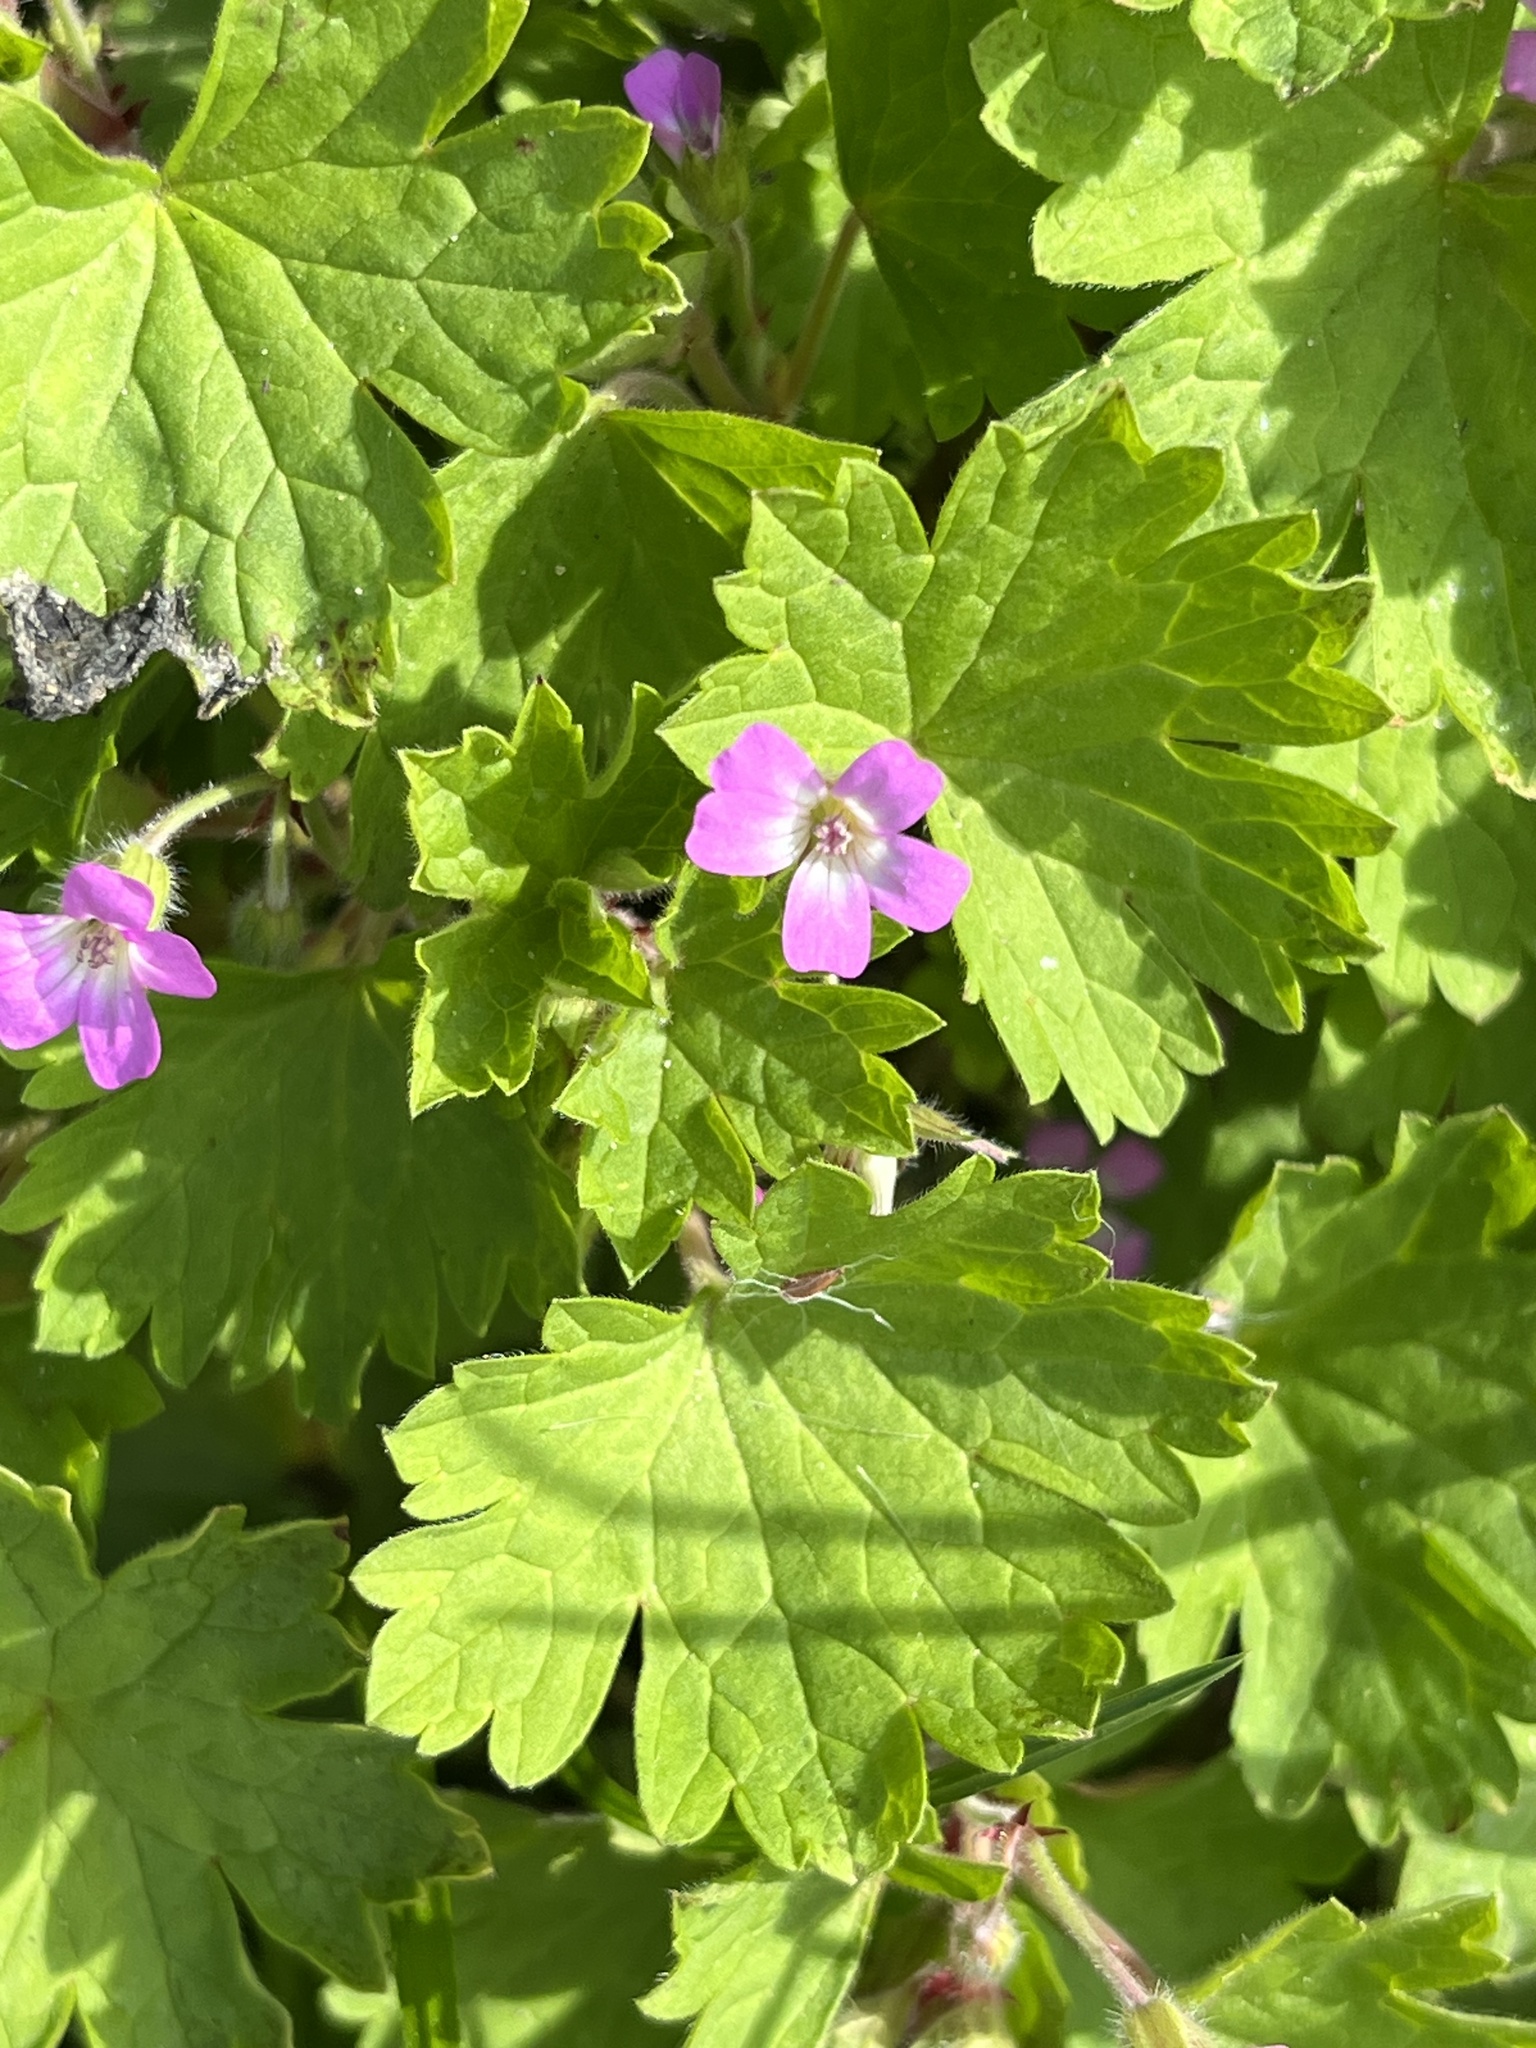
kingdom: Plantae
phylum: Tracheophyta
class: Magnoliopsida
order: Geraniales
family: Geraniaceae
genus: Geranium
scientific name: Geranium rotundifolium
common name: Round-leaved crane's-bill
